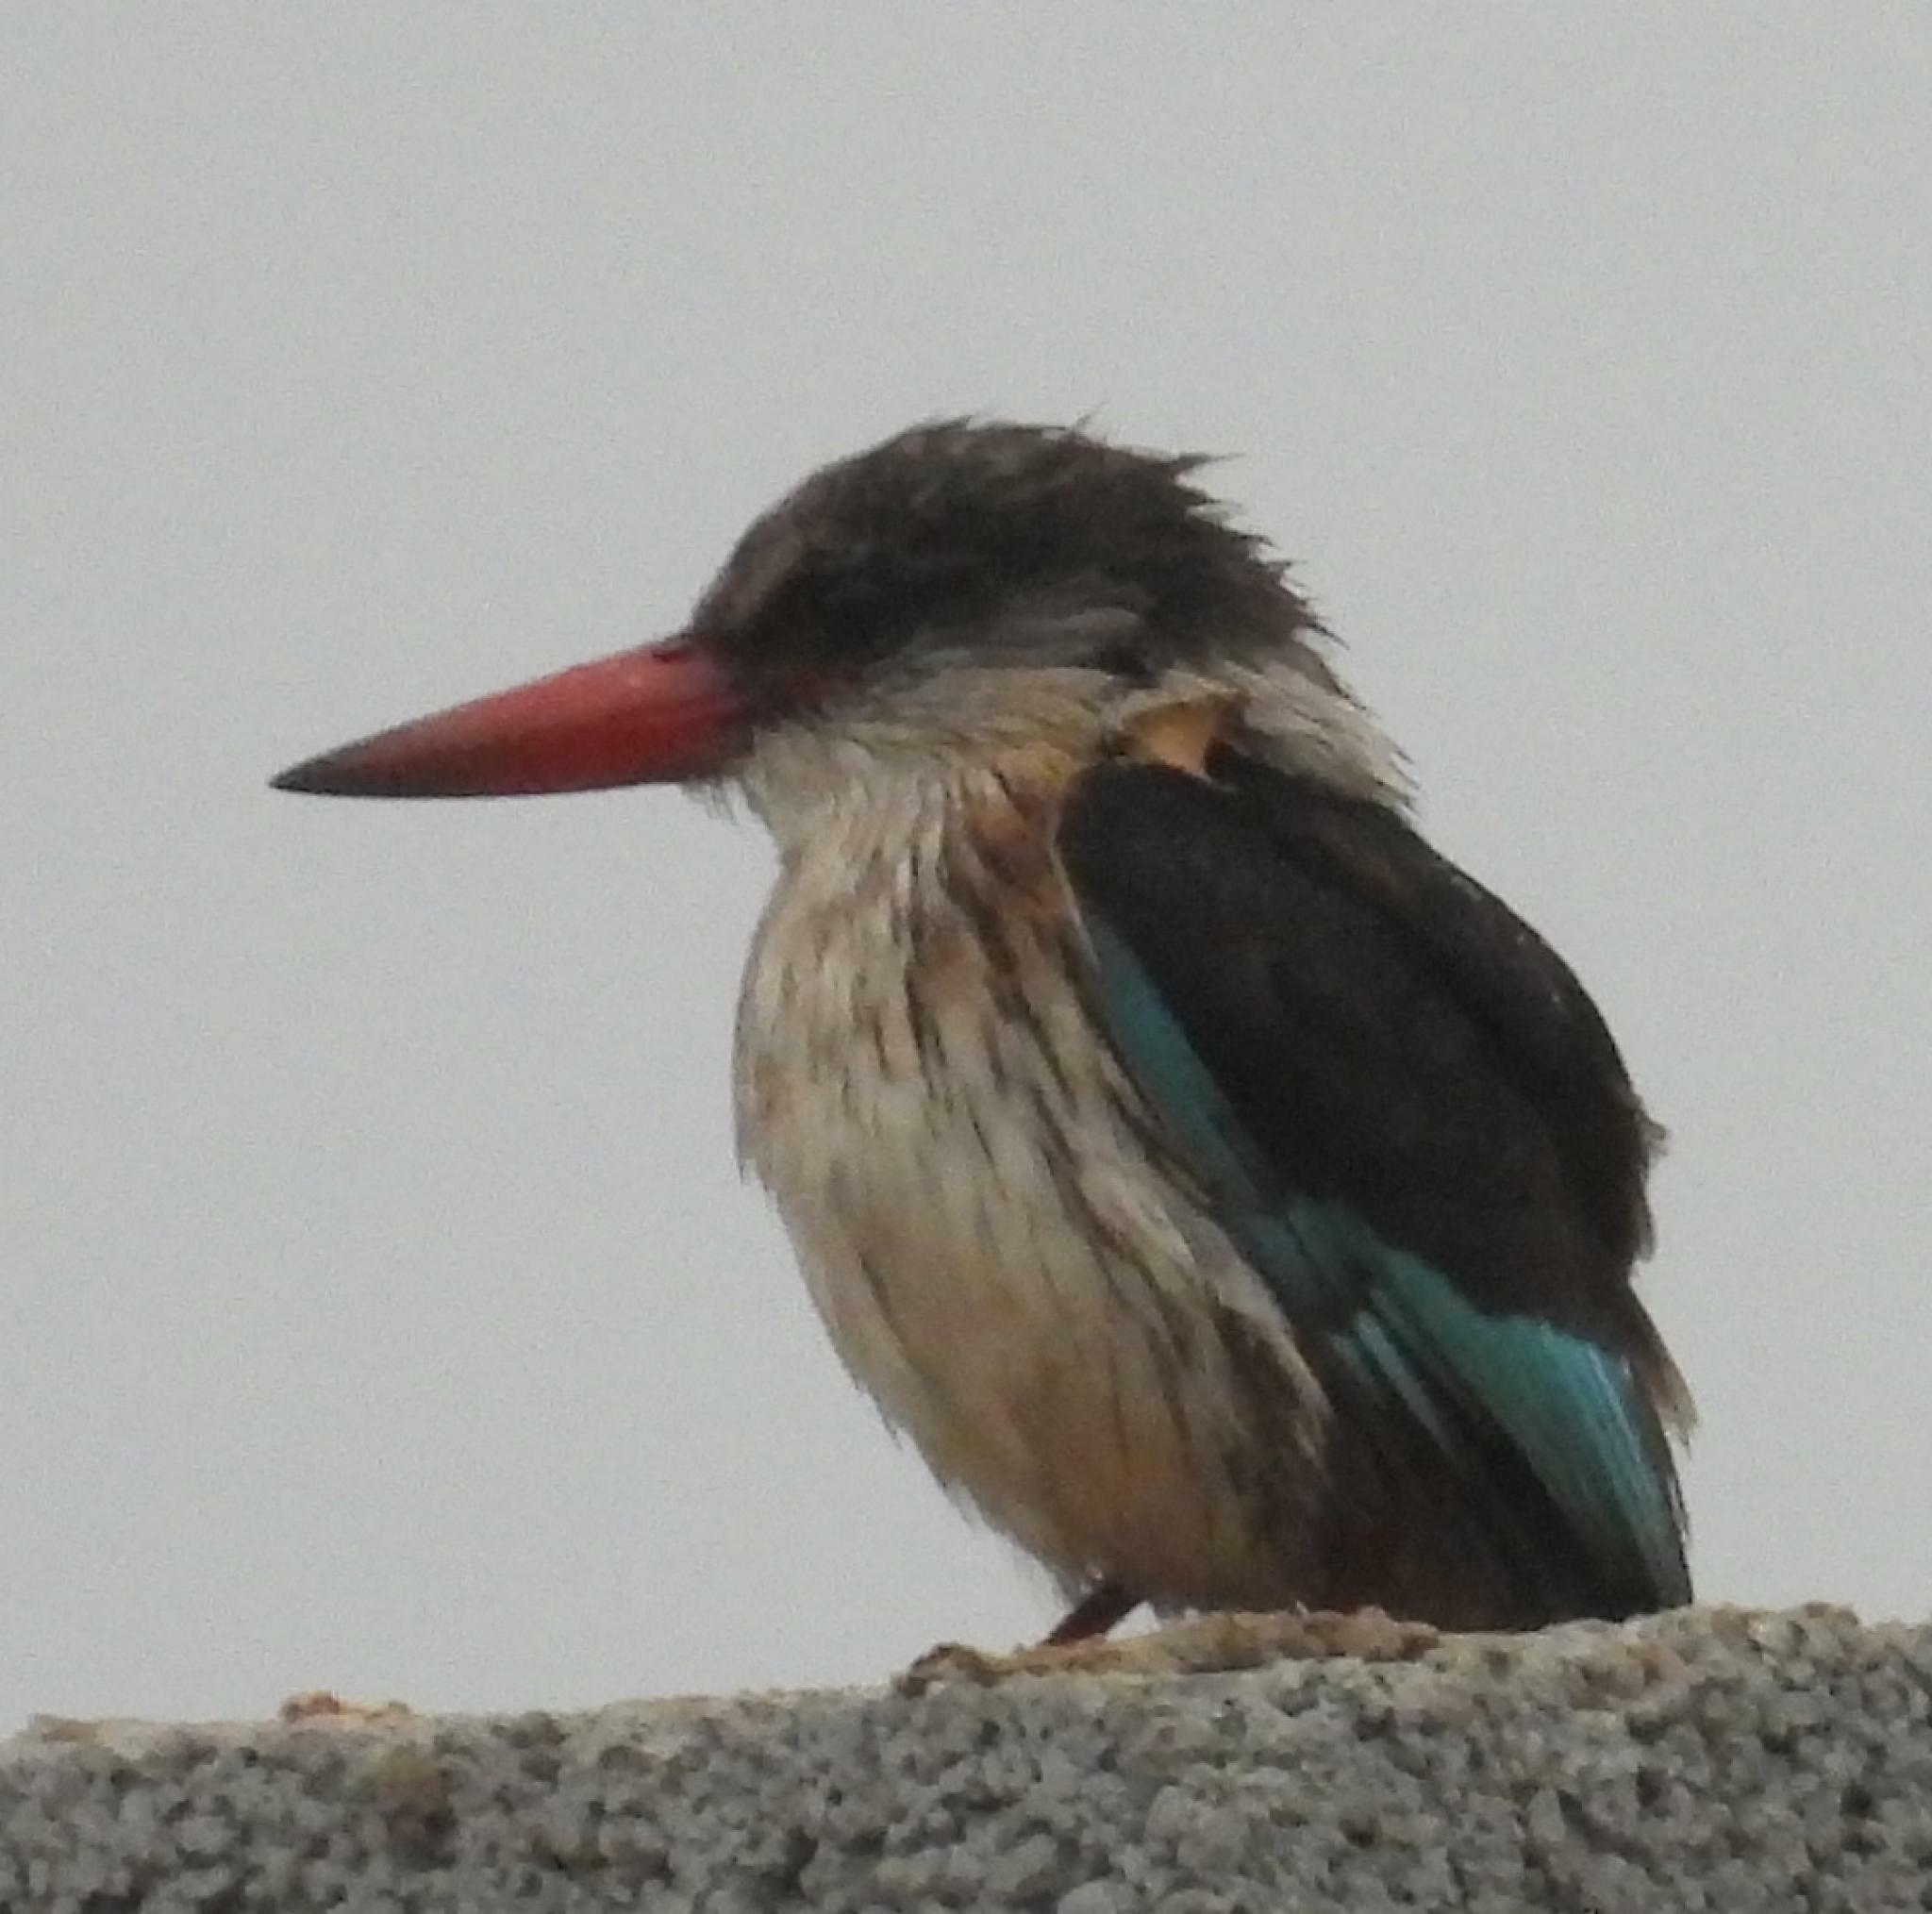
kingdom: Animalia
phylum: Chordata
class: Aves
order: Coraciiformes
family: Alcedinidae
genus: Halcyon
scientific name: Halcyon albiventris
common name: Brown-hooded kingfisher
